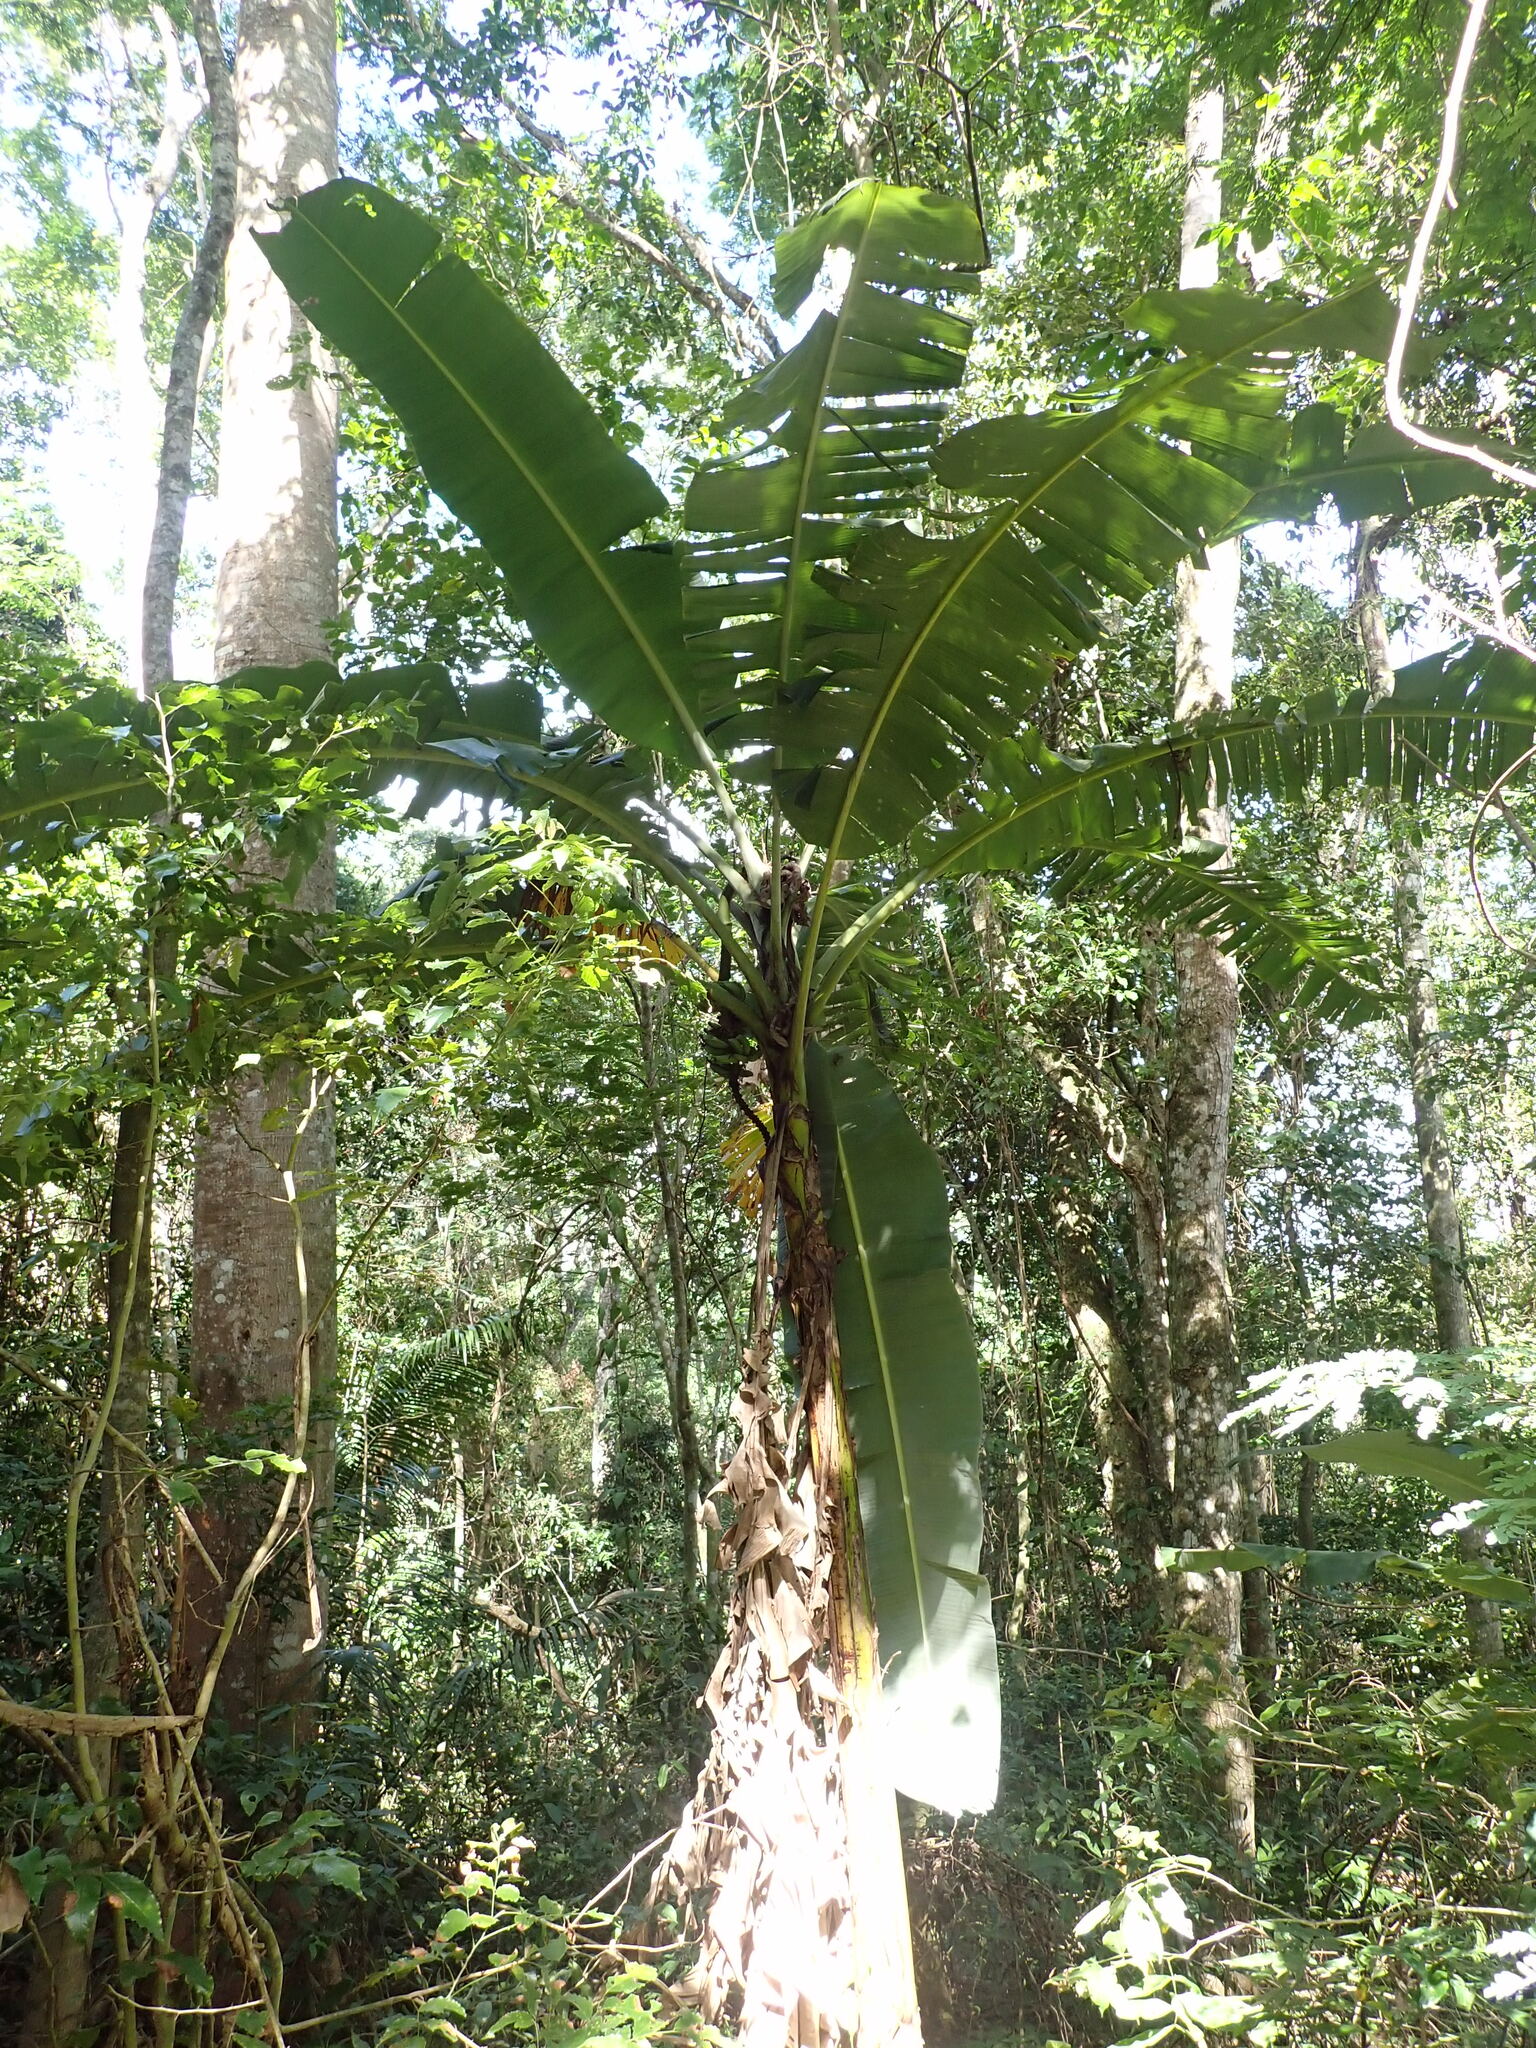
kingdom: Plantae
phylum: Tracheophyta
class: Liliopsida
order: Zingiberales
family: Musaceae
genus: Musa
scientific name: Musa paradisiaca
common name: French plantain
